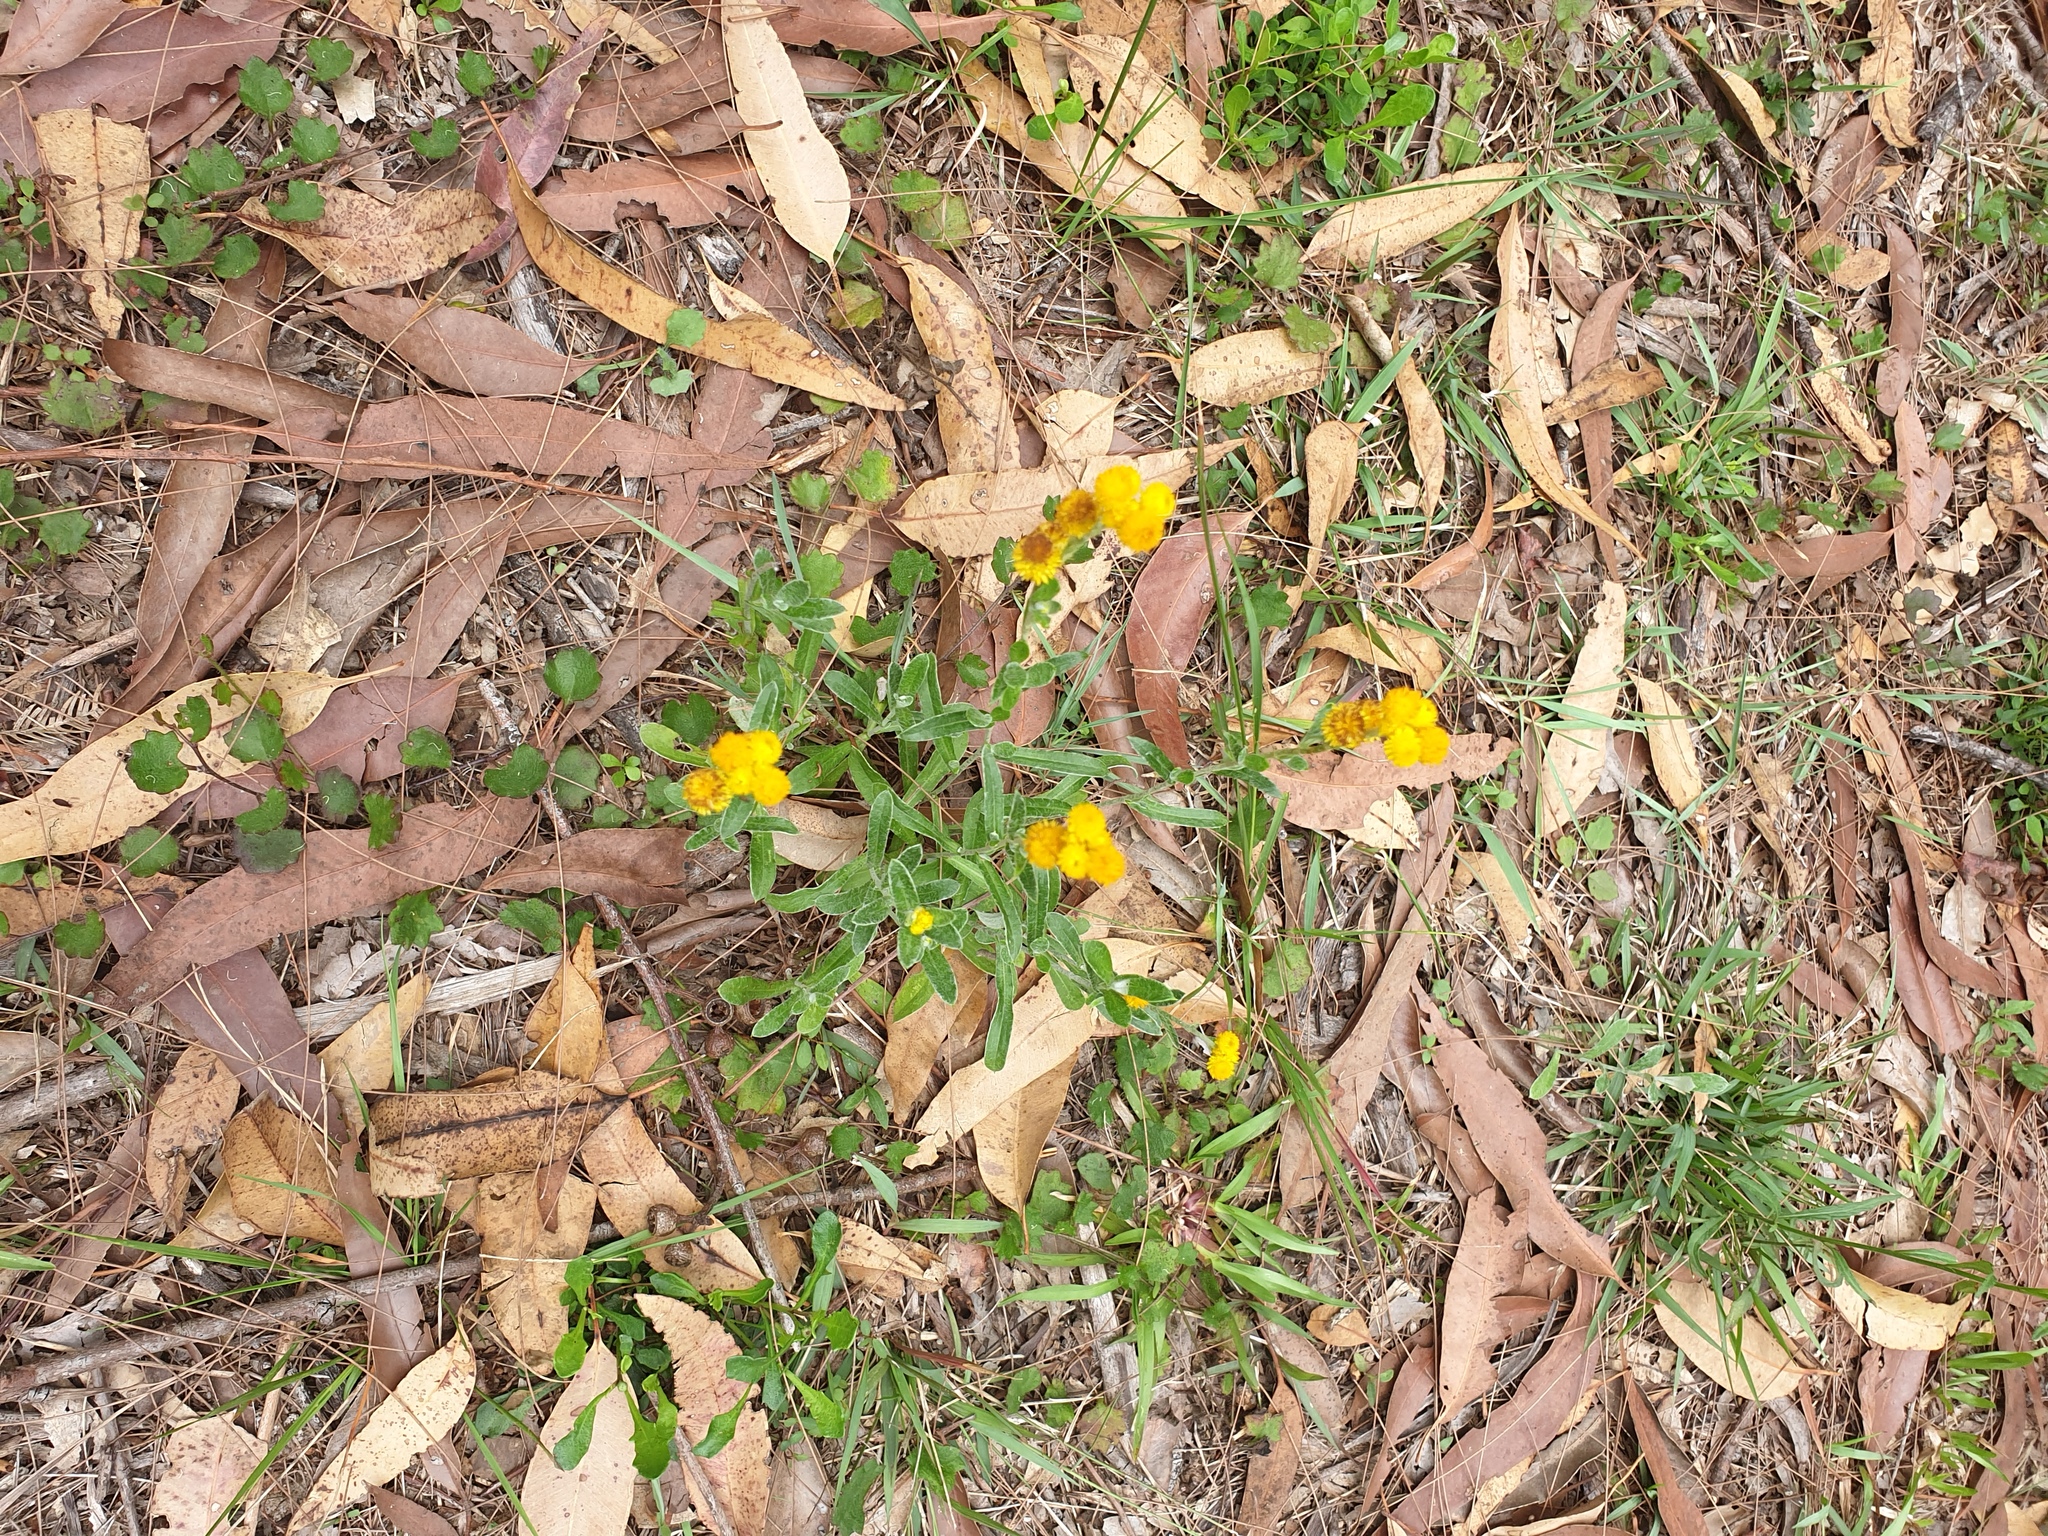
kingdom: Plantae
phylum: Tracheophyta
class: Magnoliopsida
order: Asterales
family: Asteraceae
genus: Chrysocephalum
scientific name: Chrysocephalum apiculatum
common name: Common everlasting
